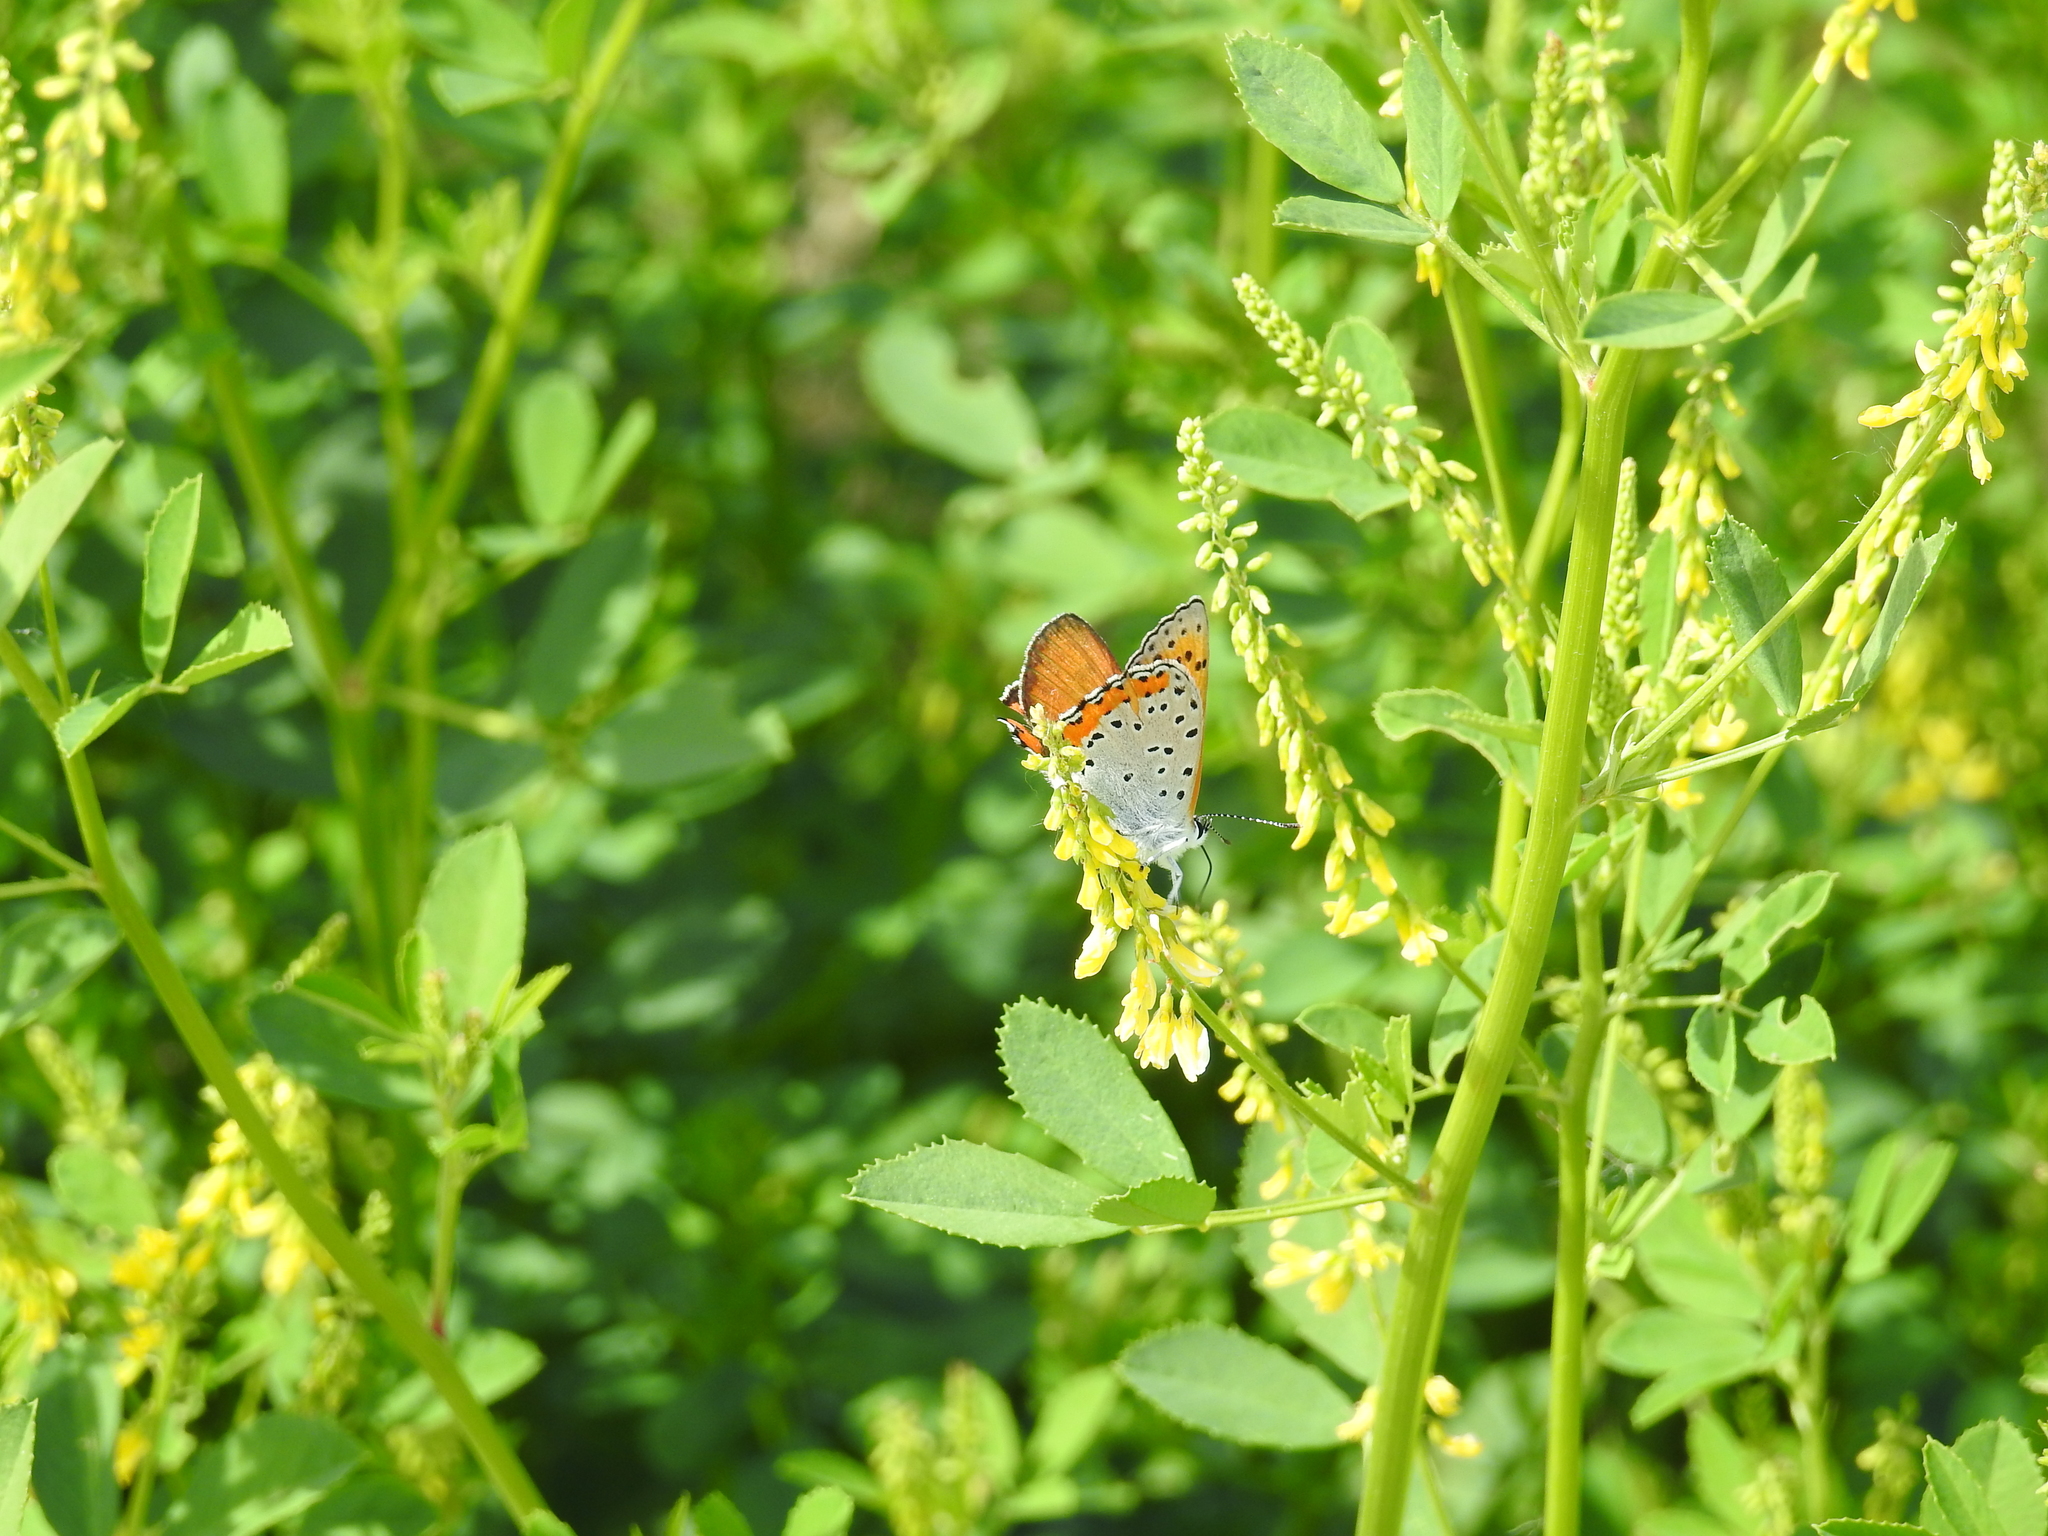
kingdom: Animalia
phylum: Arthropoda
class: Insecta
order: Lepidoptera
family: Lycaenidae
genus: Tharsalea
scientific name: Tharsalea hyllus
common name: Bronze copper
